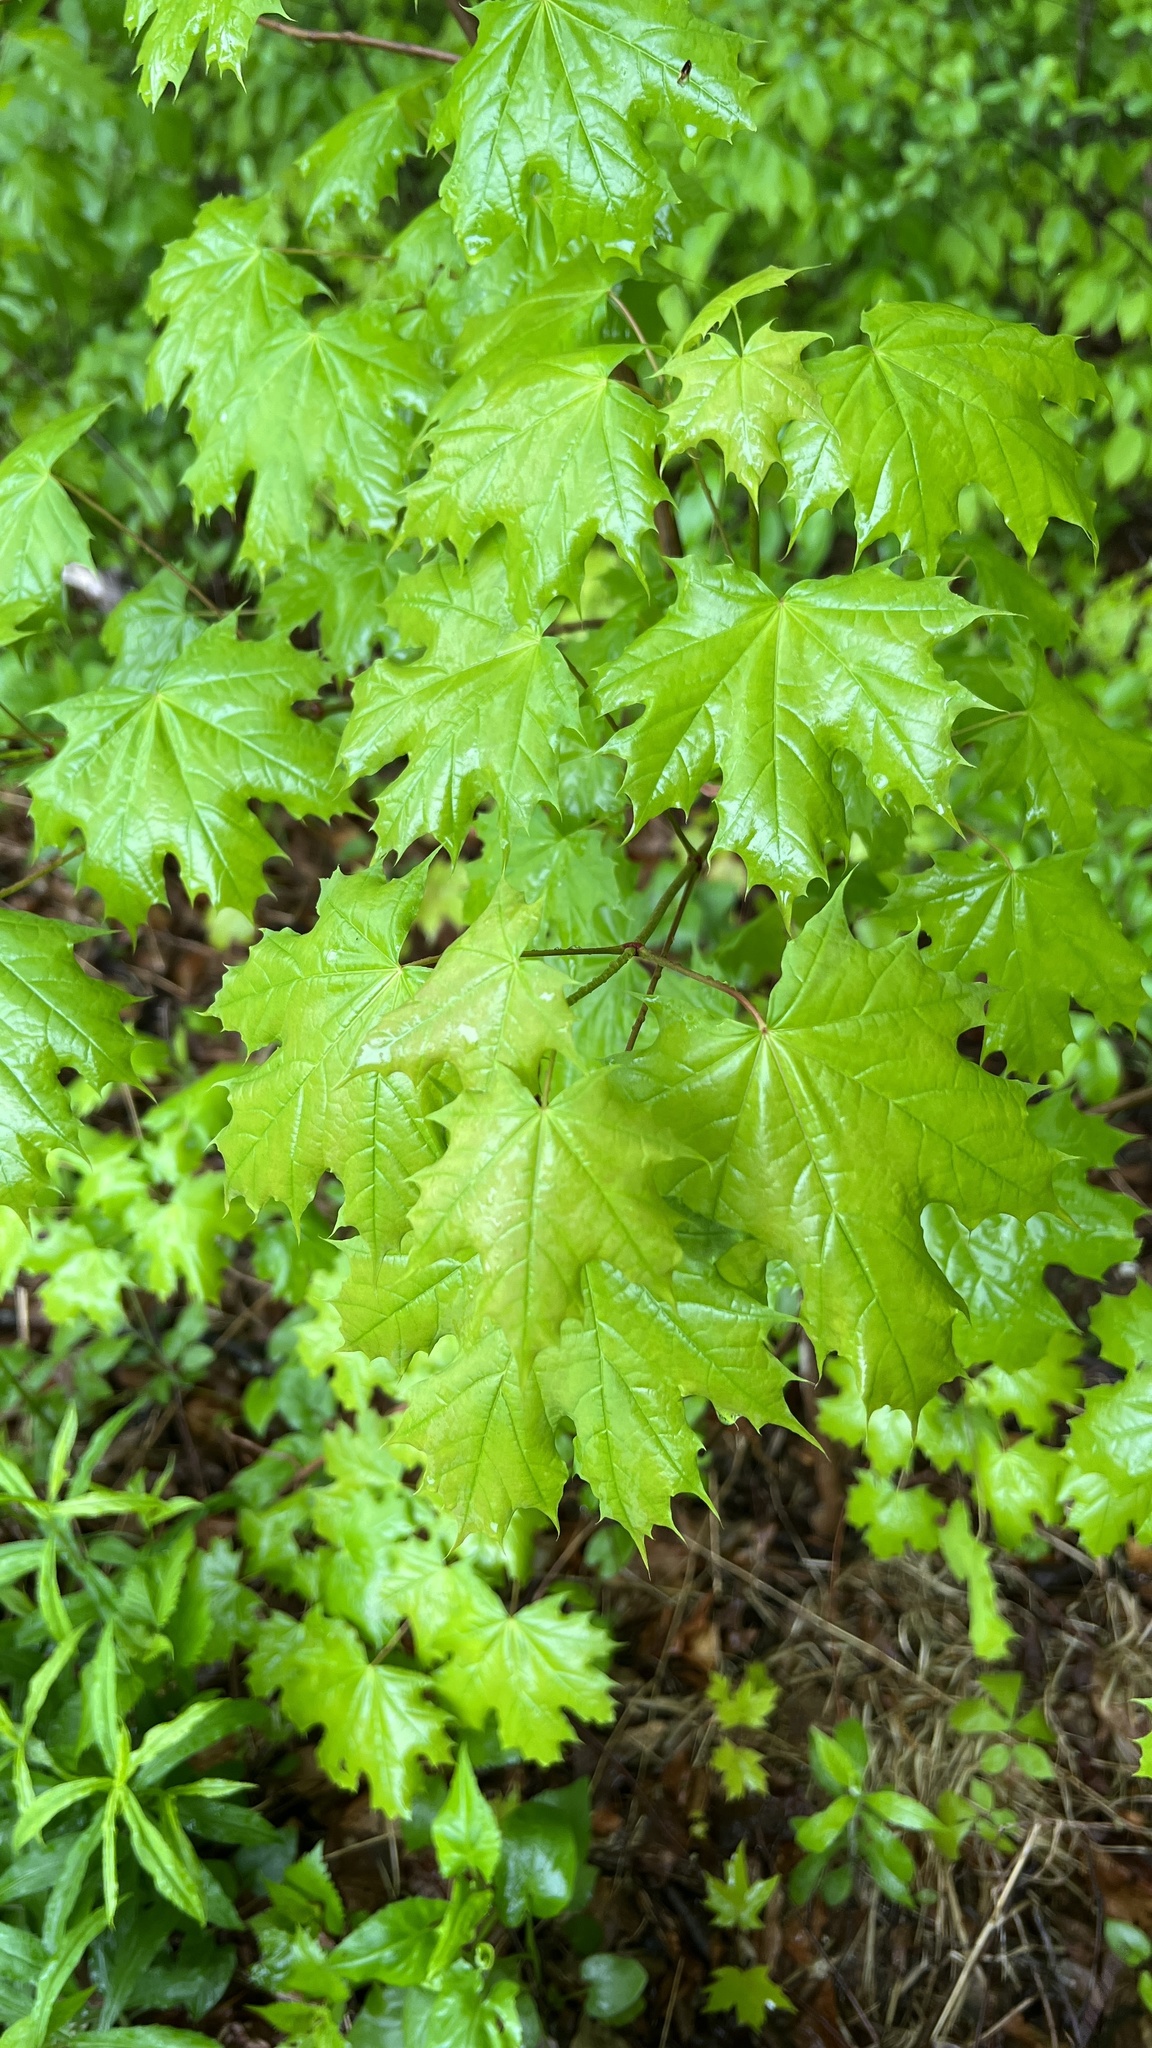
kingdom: Plantae
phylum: Tracheophyta
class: Magnoliopsida
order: Sapindales
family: Sapindaceae
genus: Acer
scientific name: Acer platanoides
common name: Norway maple
